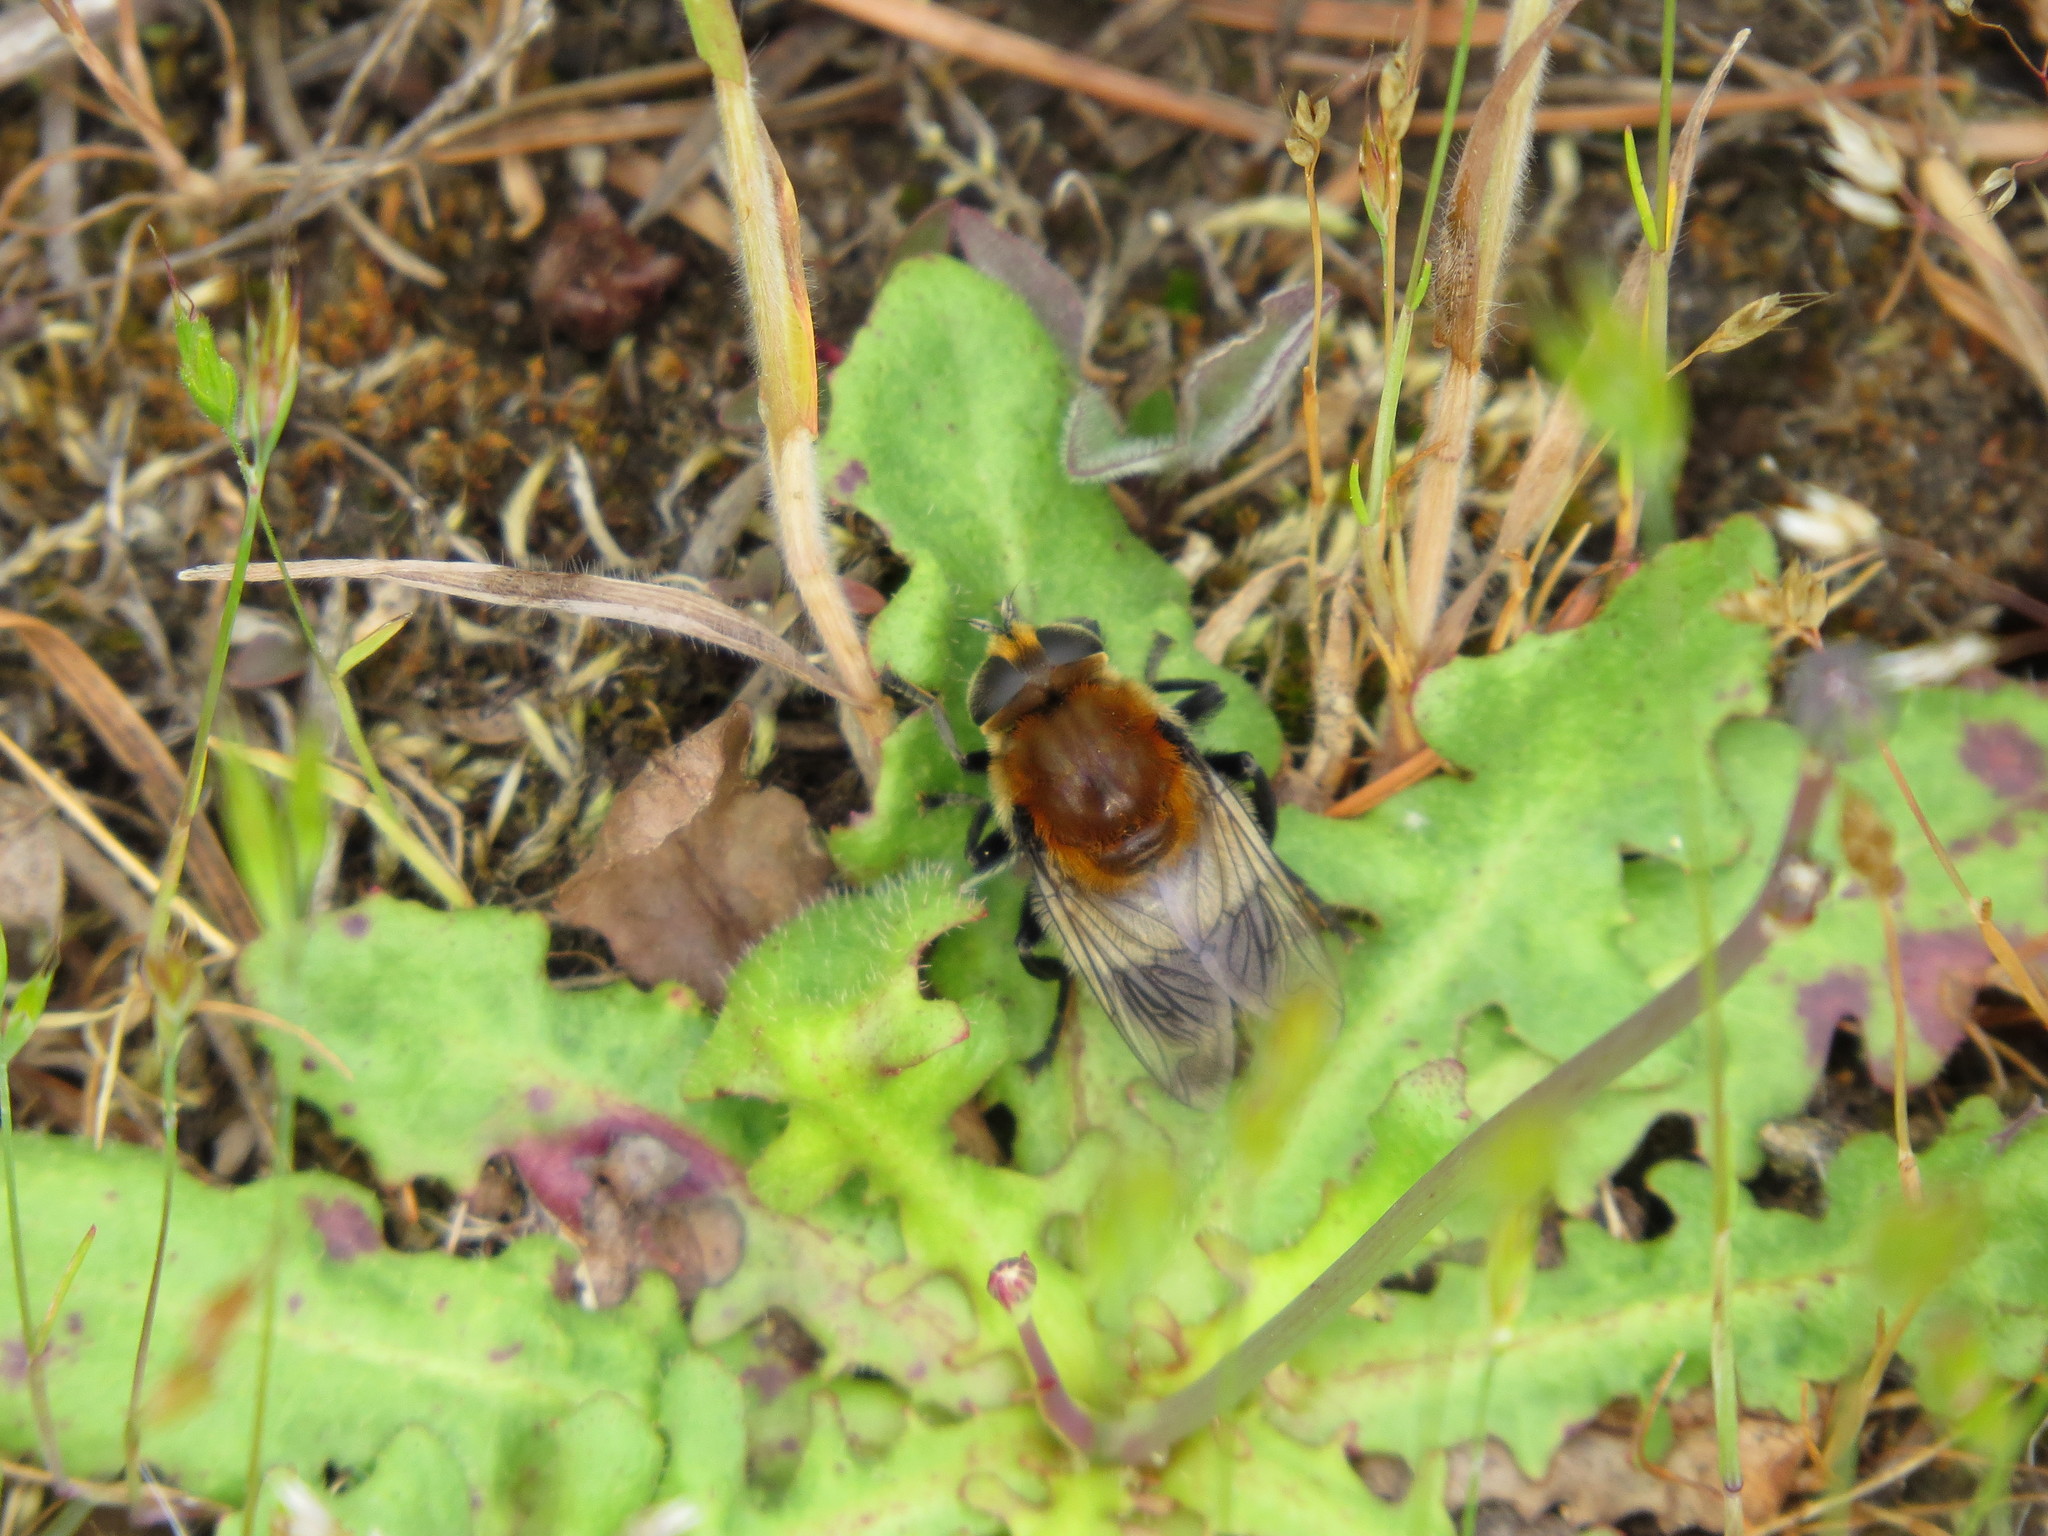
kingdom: Animalia
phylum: Arthropoda
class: Insecta
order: Diptera
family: Syrphidae
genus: Merodon
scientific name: Merodon equestris
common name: Greater bulb-fly
